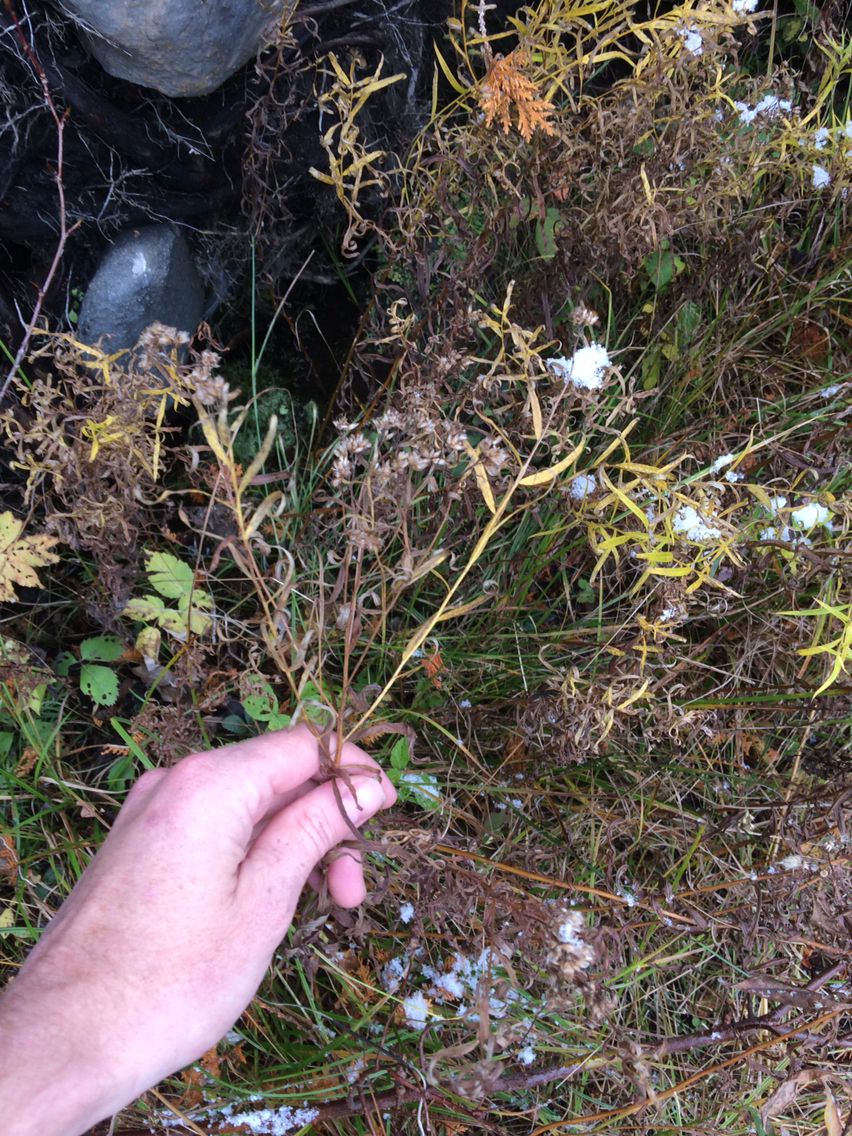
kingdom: Plantae
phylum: Tracheophyta
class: Magnoliopsida
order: Asterales
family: Asteraceae
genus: Euthamia
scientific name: Euthamia graminifolia
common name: Common goldentop
